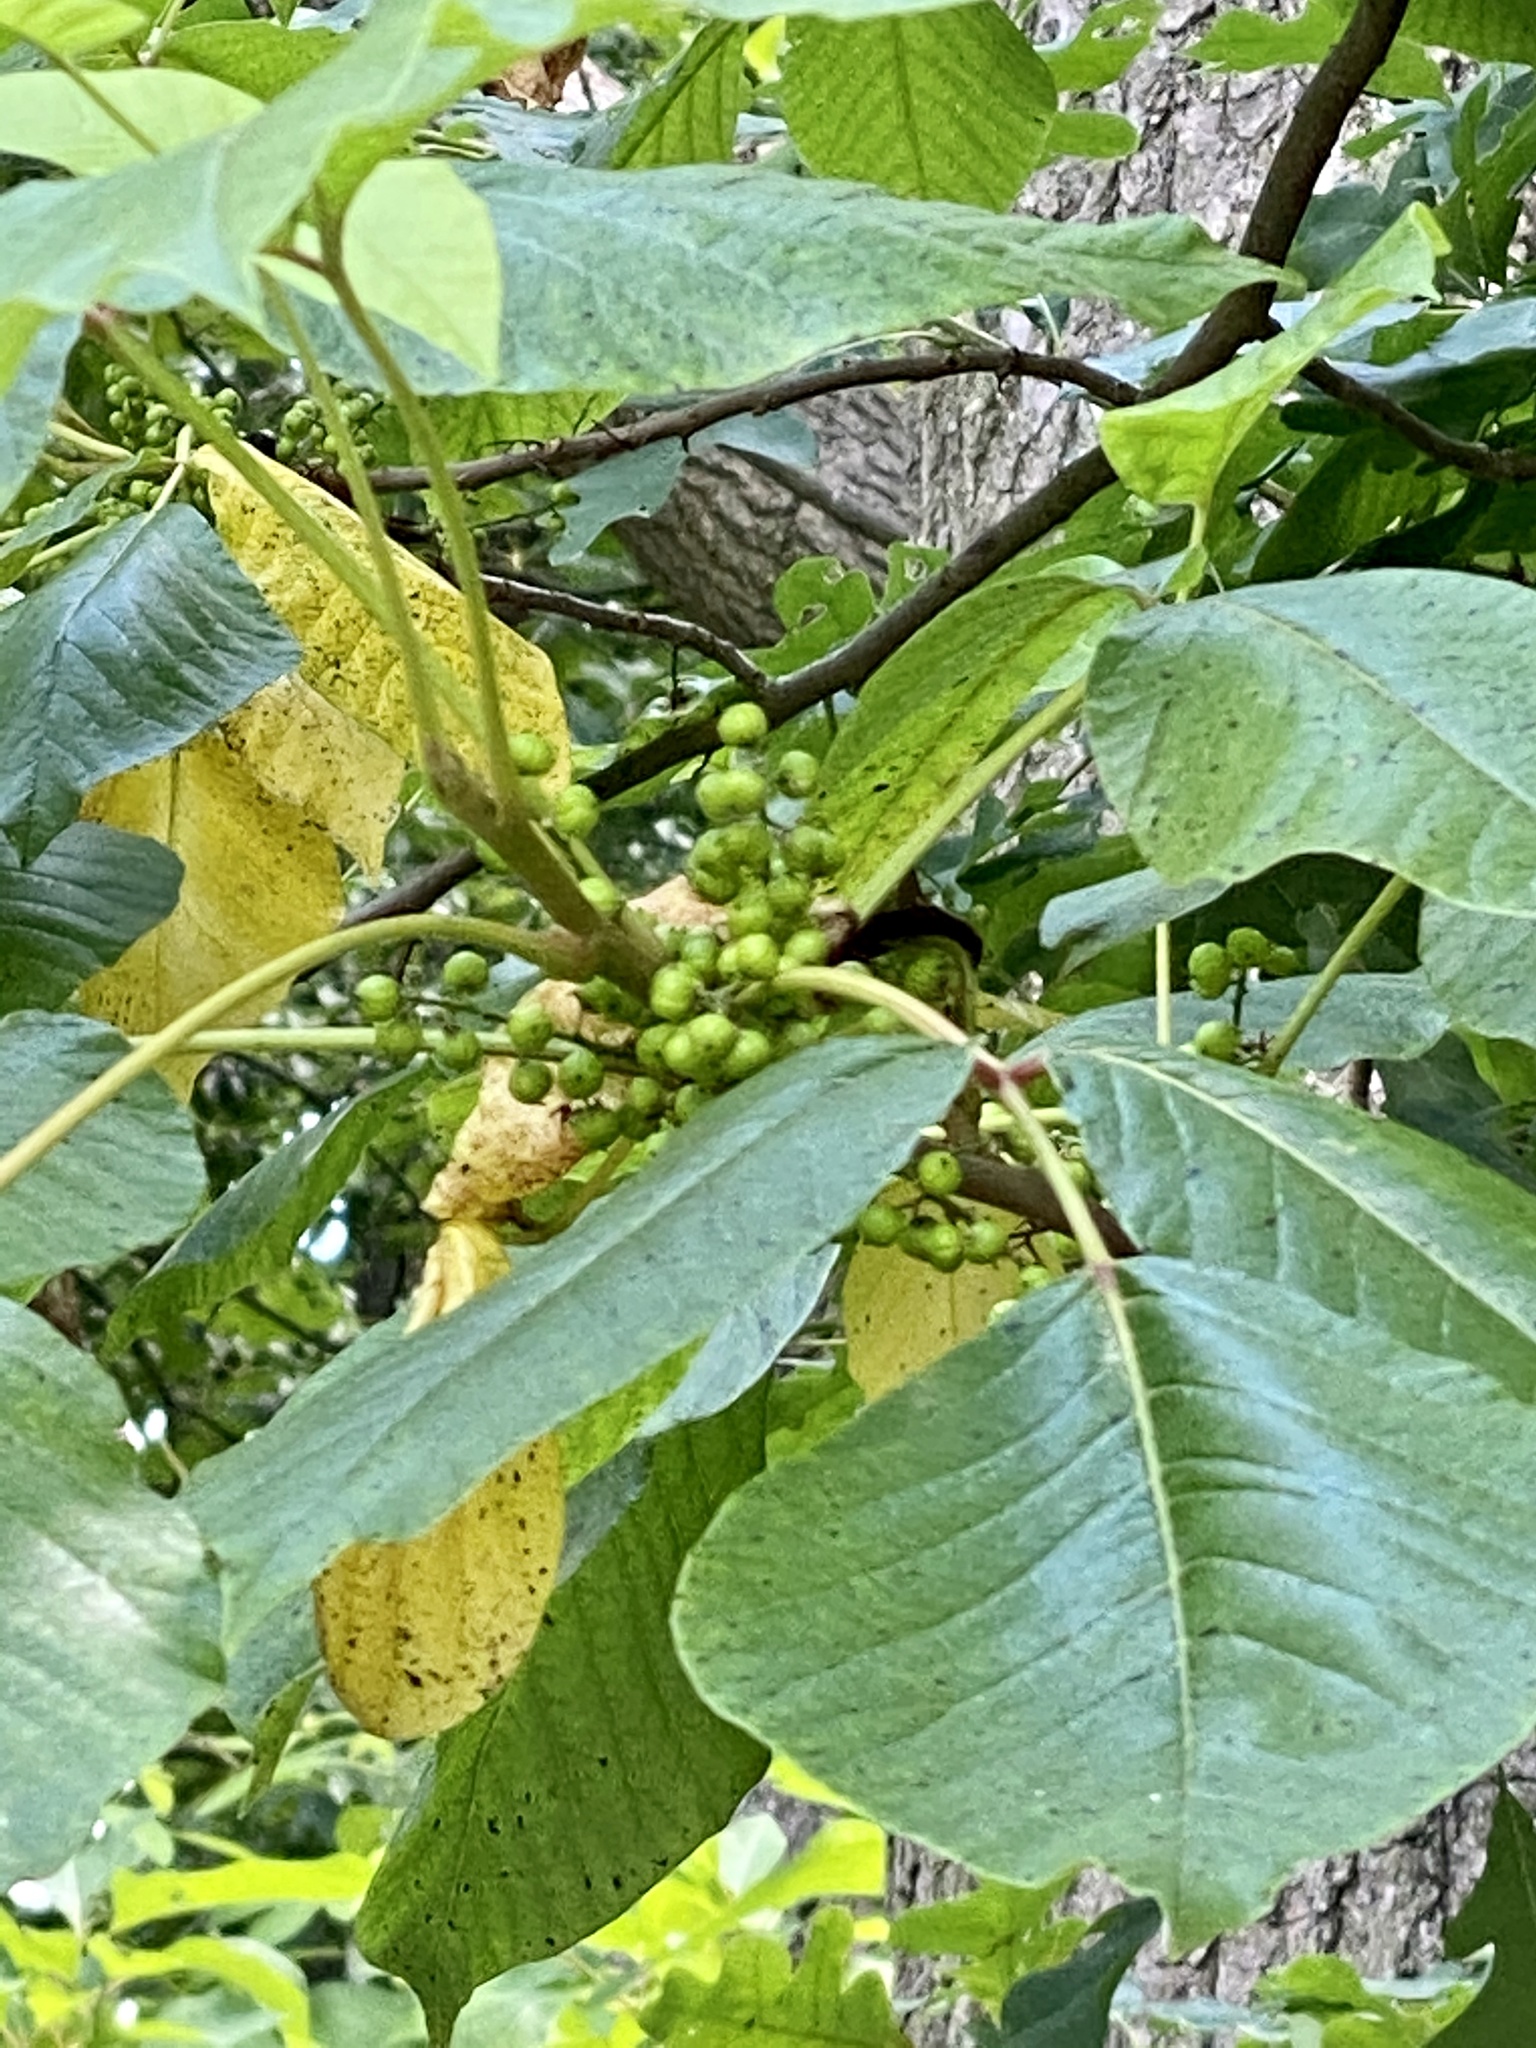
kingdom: Plantae
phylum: Tracheophyta
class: Magnoliopsida
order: Sapindales
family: Anacardiaceae
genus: Toxicodendron
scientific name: Toxicodendron radicans
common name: Poison ivy
